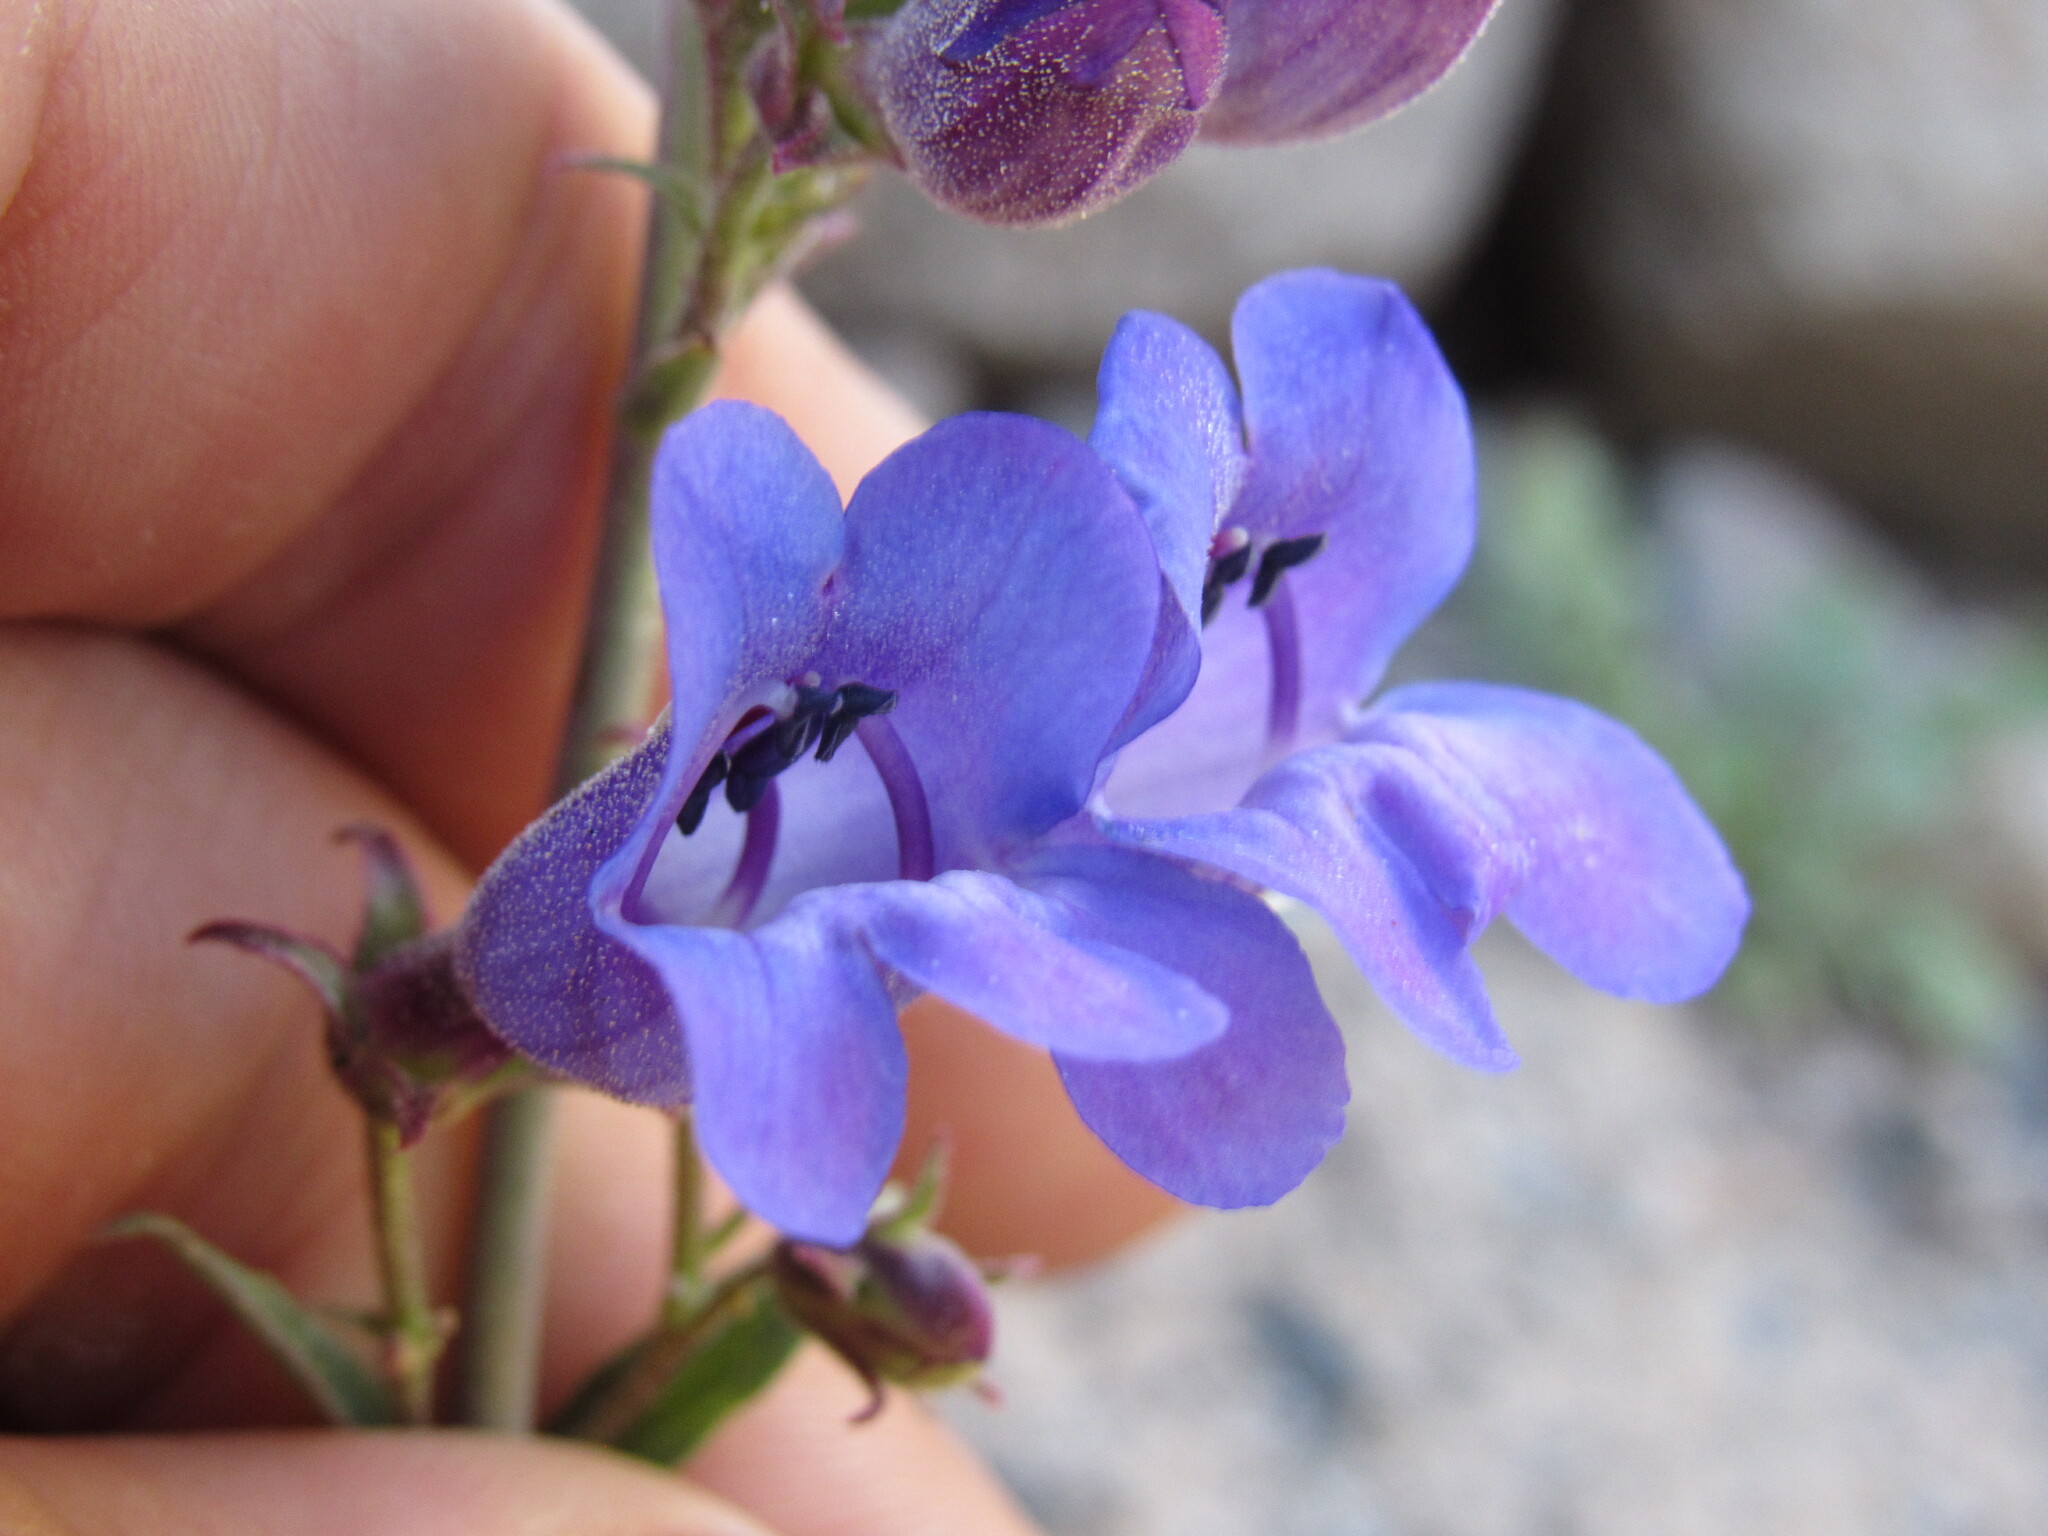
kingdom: Plantae
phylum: Tracheophyta
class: Magnoliopsida
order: Lamiales
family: Plantaginaceae
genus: Penstemon
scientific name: Penstemon leiophyllus
